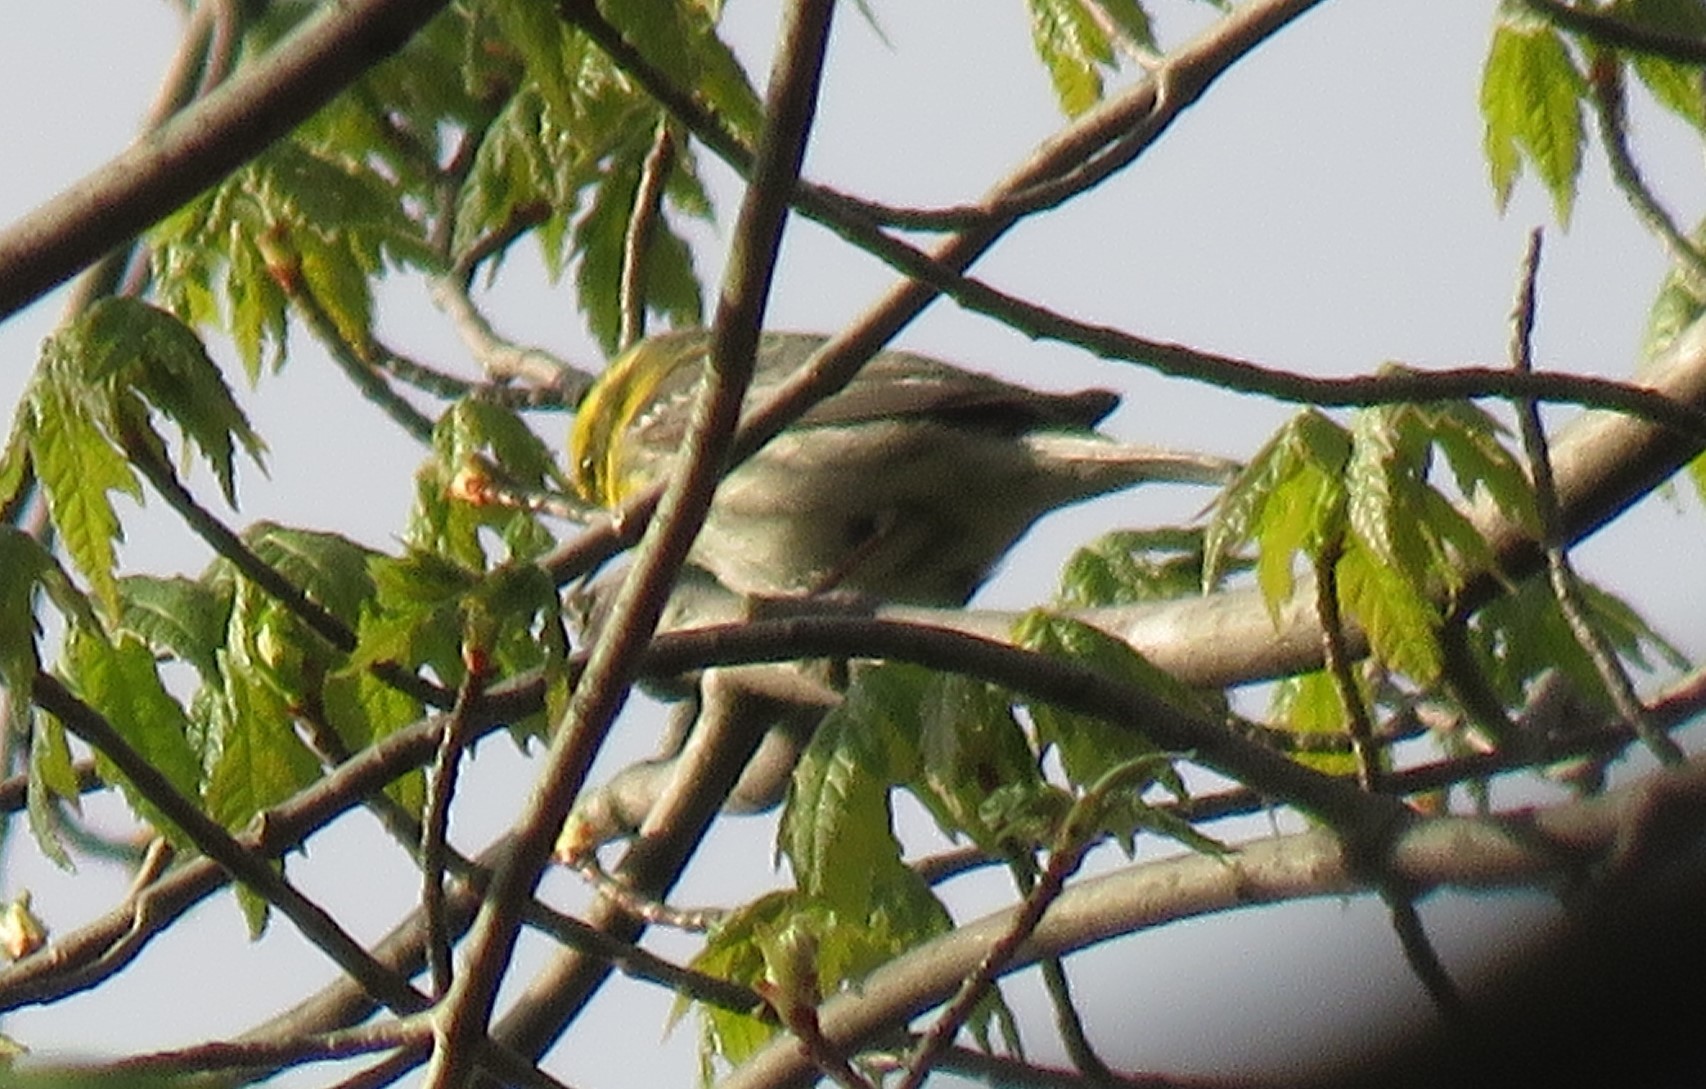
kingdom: Animalia
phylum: Chordata
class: Aves
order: Passeriformes
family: Parulidae
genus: Setophaga
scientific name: Setophaga townsendi
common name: Townsend's warbler
